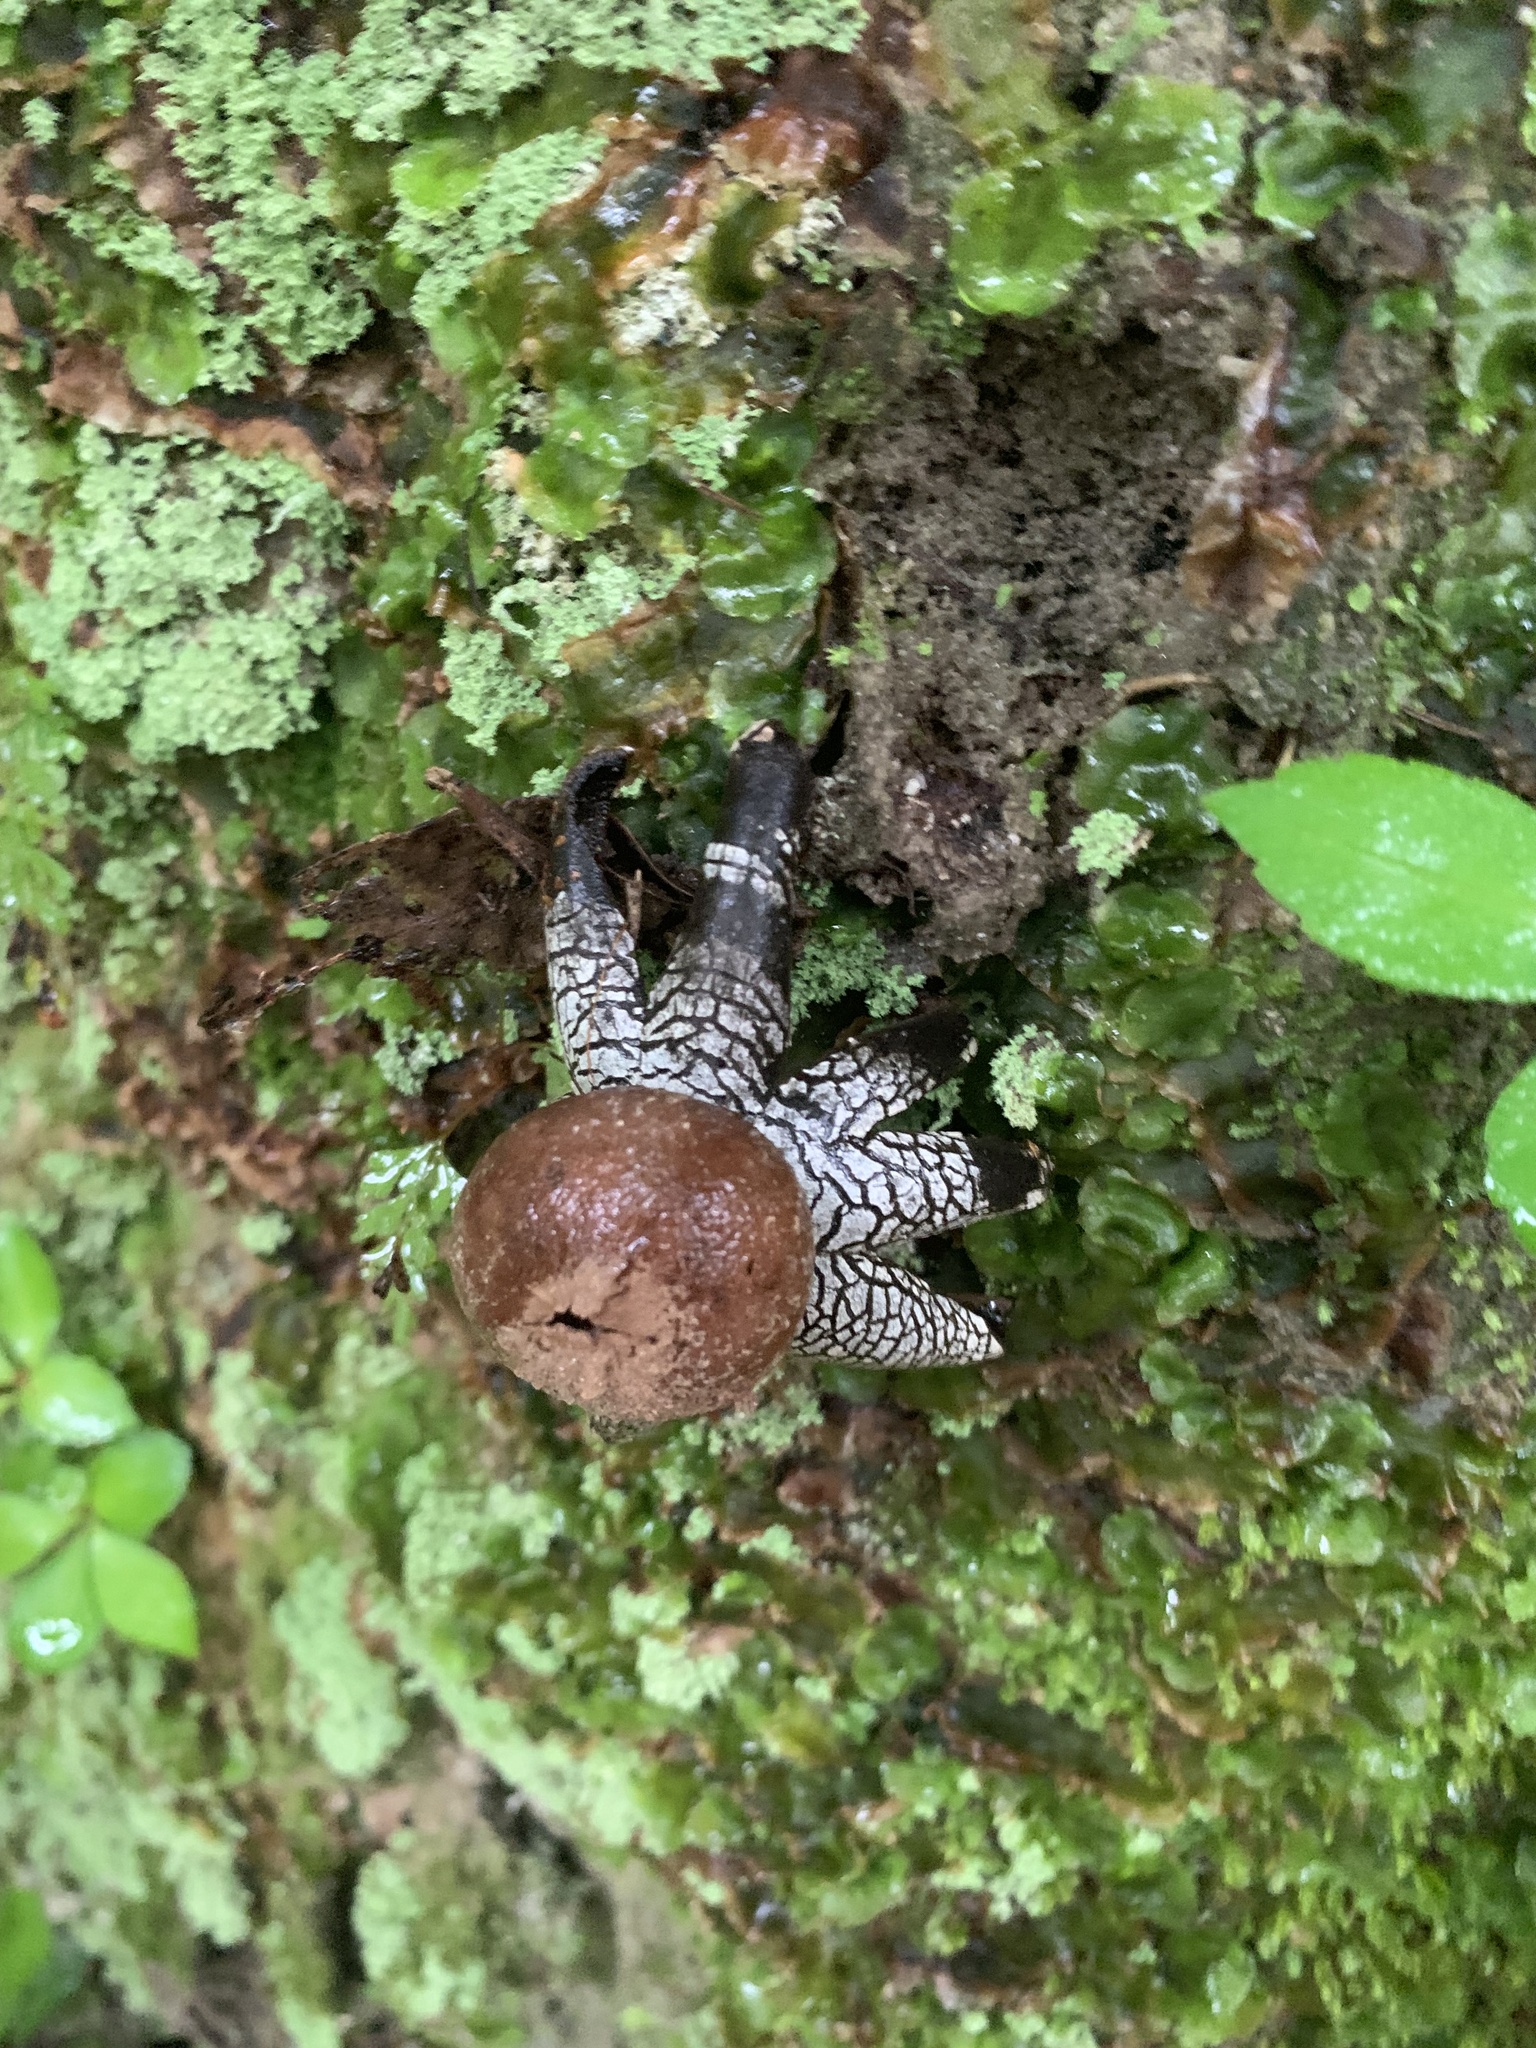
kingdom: Fungi
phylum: Basidiomycota
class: Agaricomycetes
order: Boletales
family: Diplocystidiaceae
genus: Astraeus
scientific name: Astraeus hygrometricus
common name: Barometer earthstar
